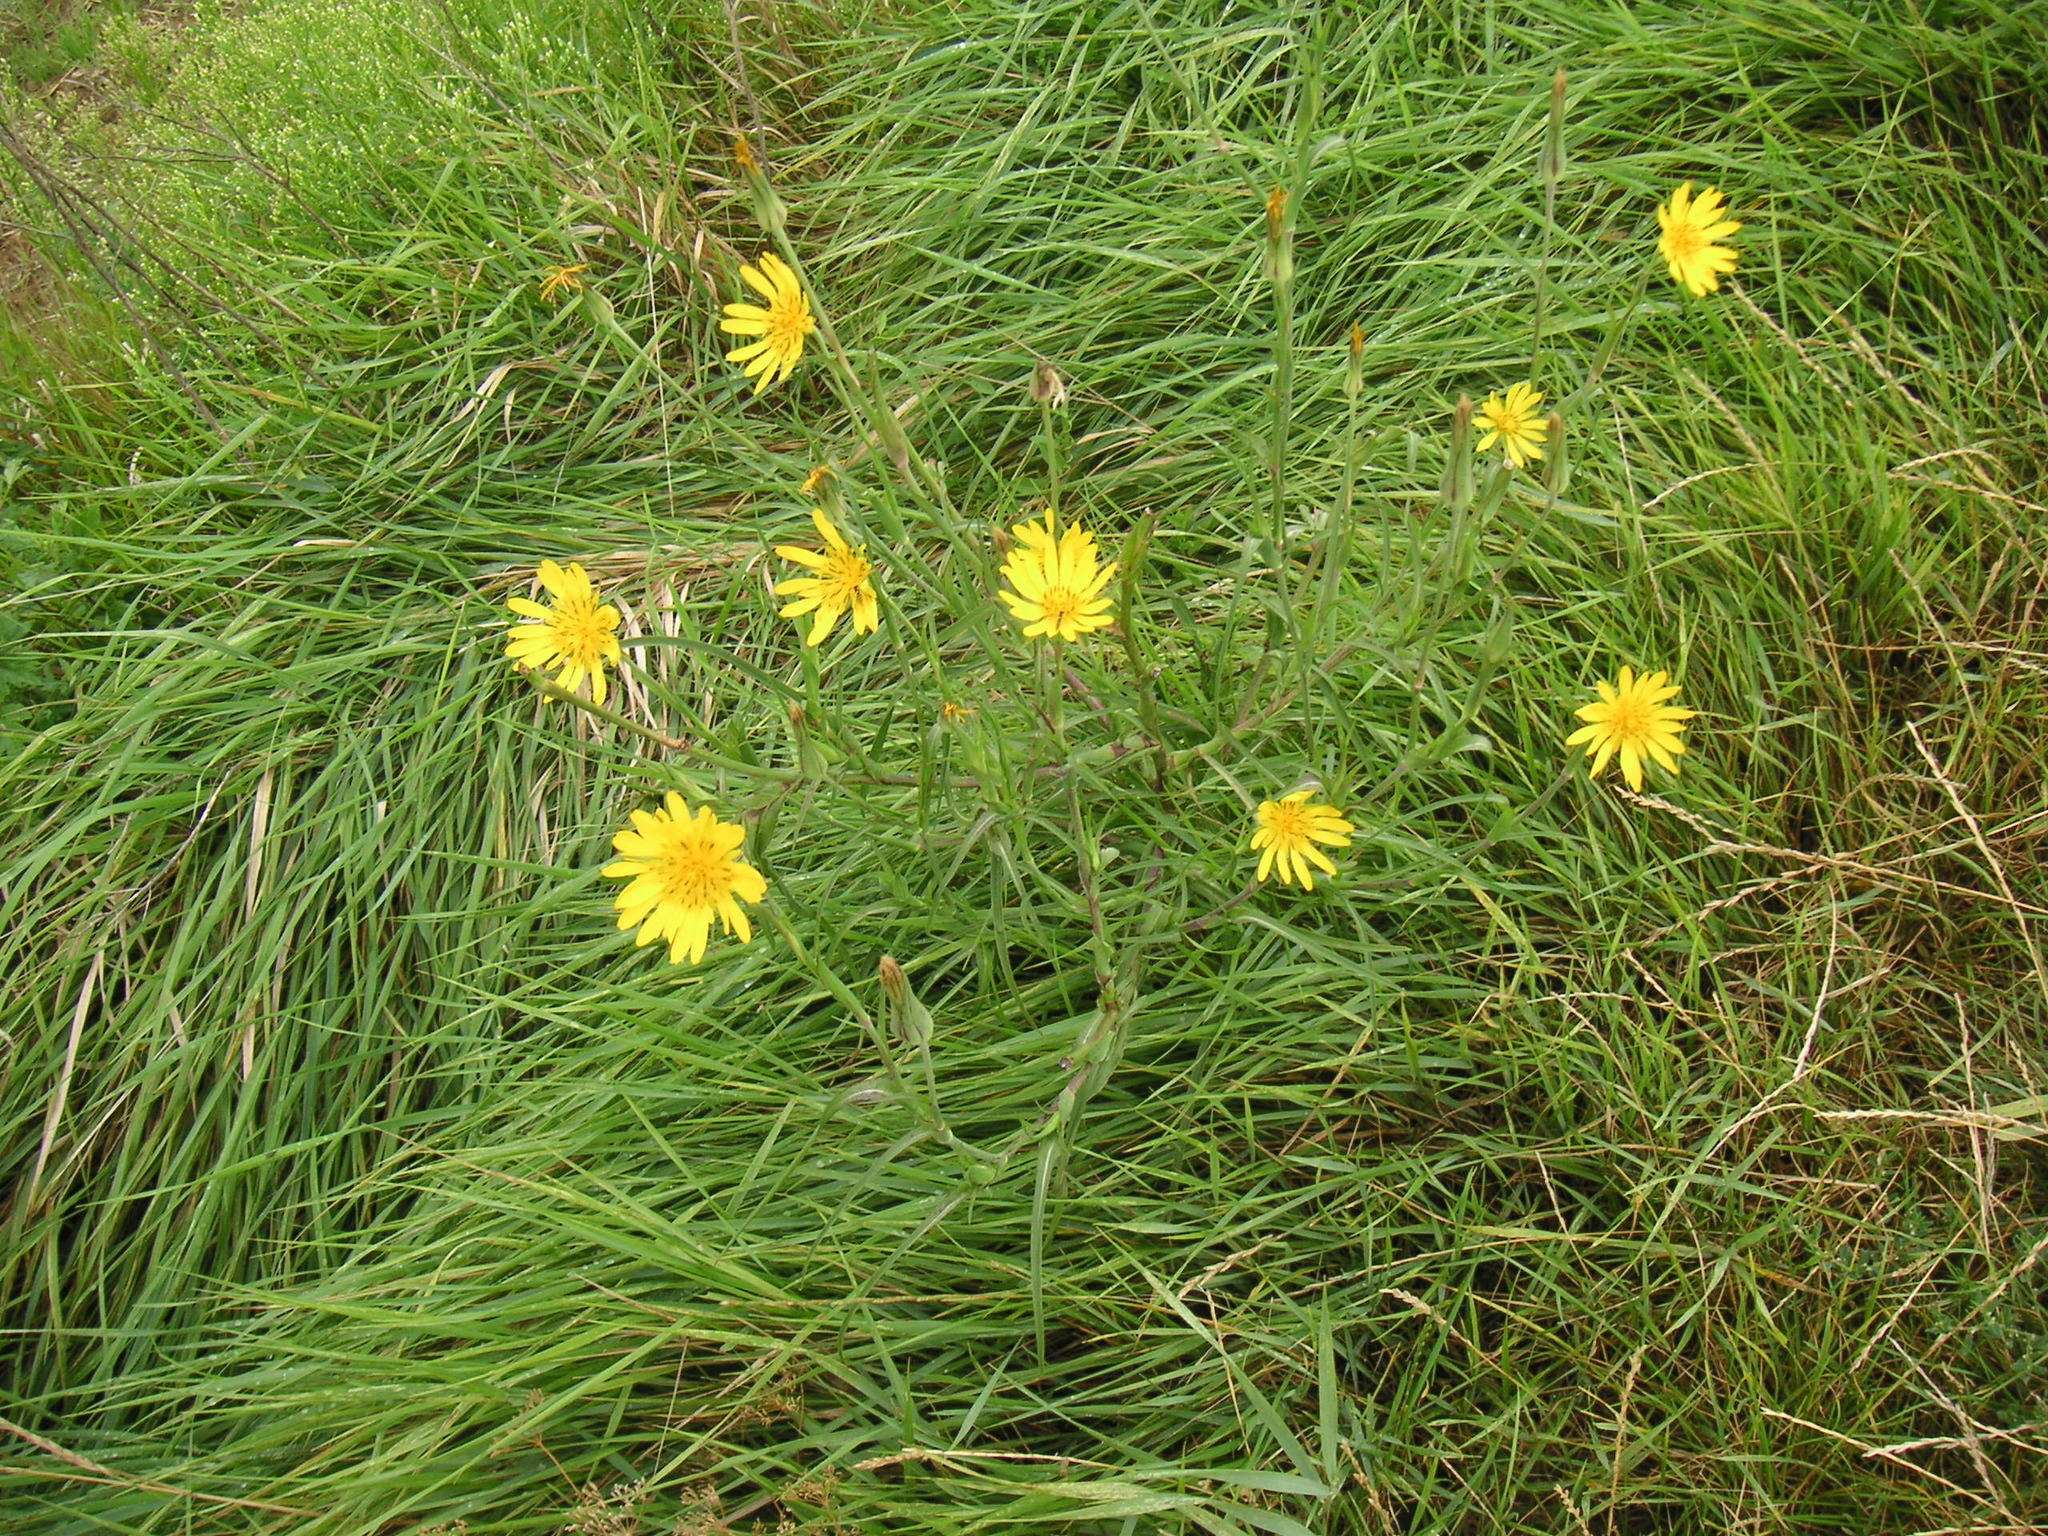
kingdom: Plantae
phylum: Tracheophyta
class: Magnoliopsida
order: Asterales
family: Asteraceae
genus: Tragopogon
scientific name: Tragopogon orientalis
